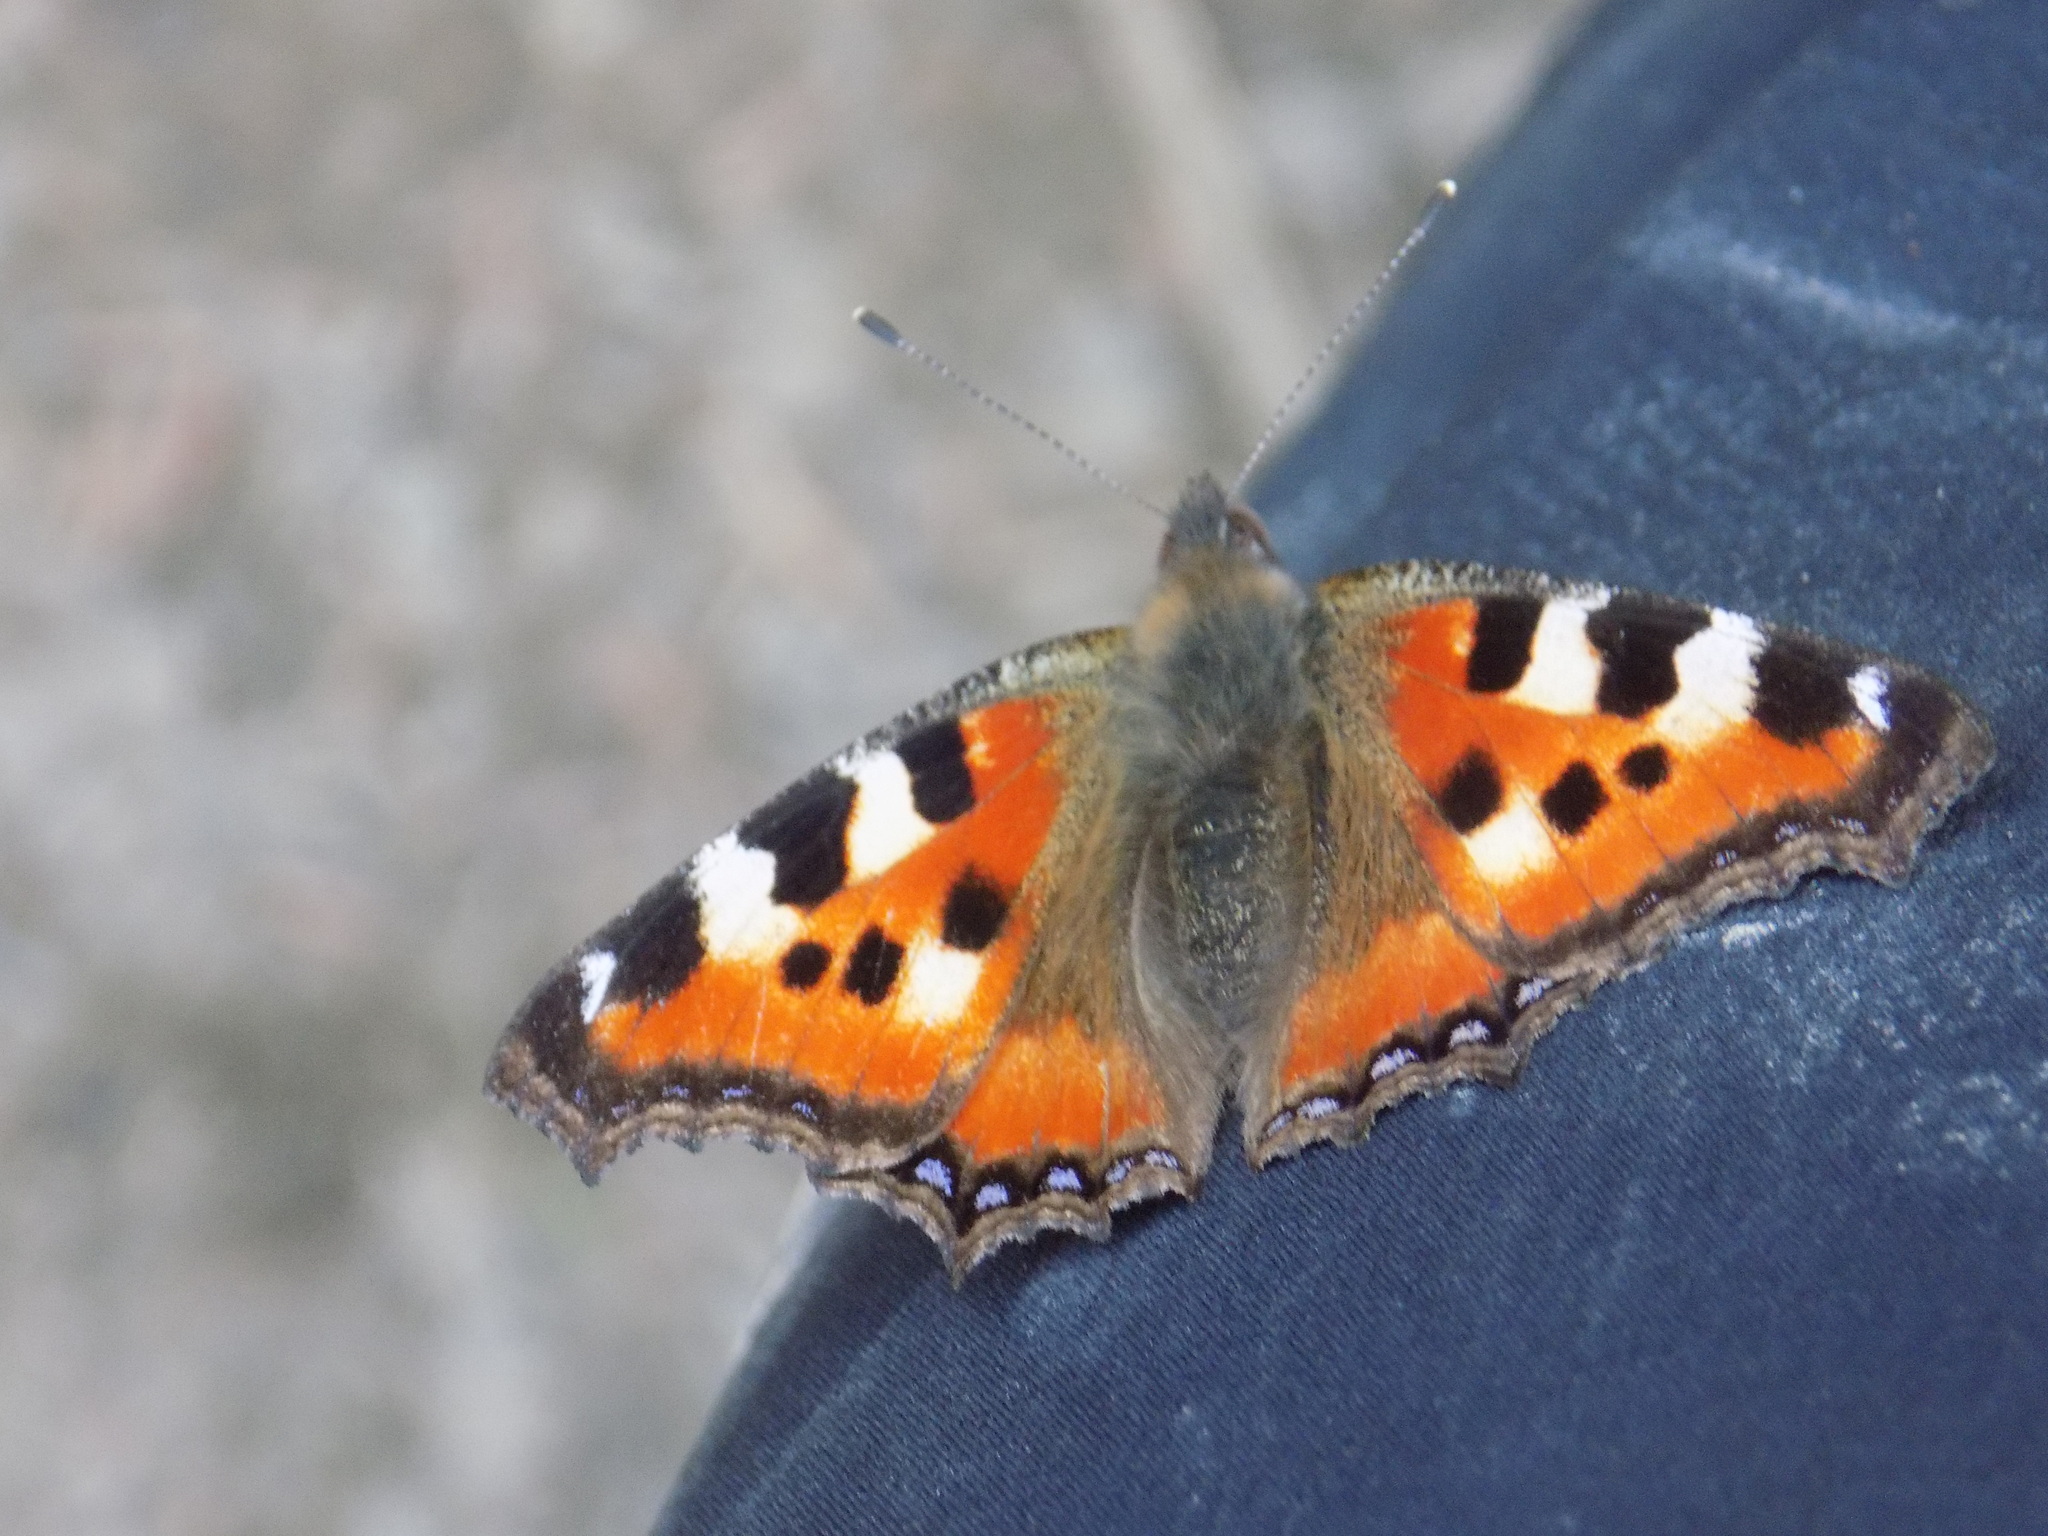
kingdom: Animalia
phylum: Arthropoda
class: Insecta
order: Lepidoptera
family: Nymphalidae
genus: Aglais
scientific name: Aglais urticae
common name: Small tortoiseshell
